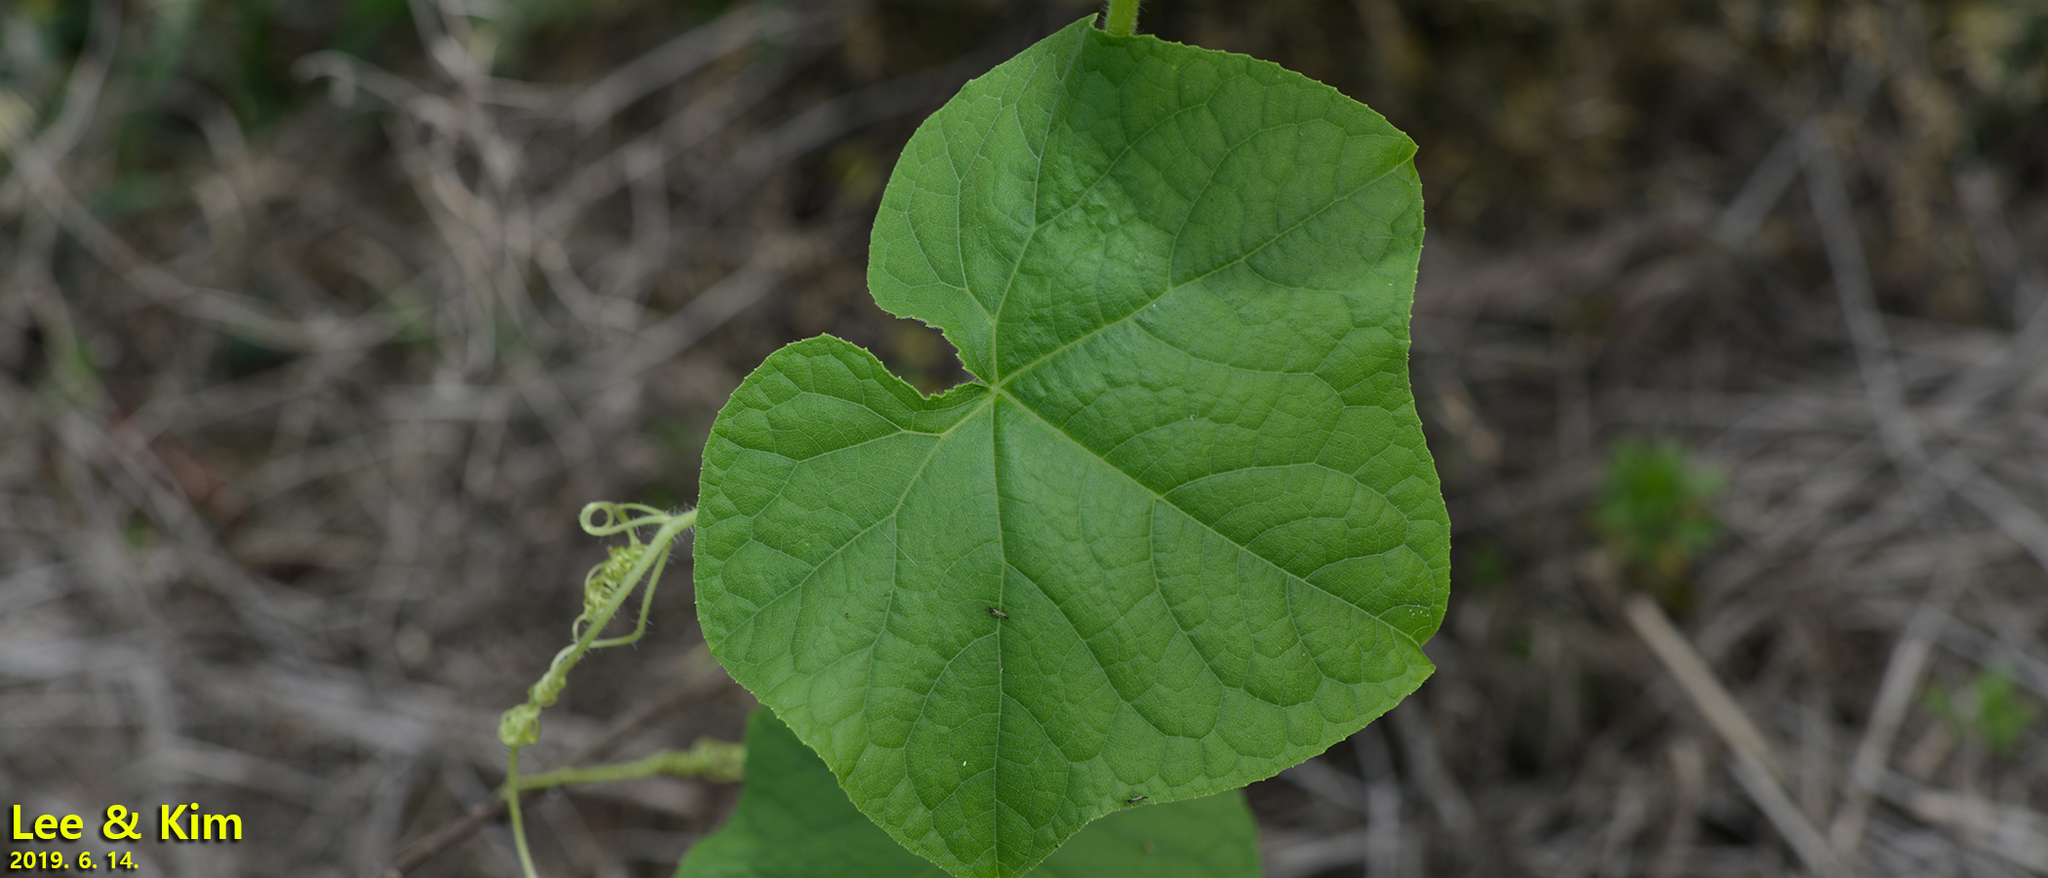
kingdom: Plantae
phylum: Tracheophyta
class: Magnoliopsida
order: Cucurbitales
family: Cucurbitaceae
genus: Sicyos
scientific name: Sicyos angulatus
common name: Angled burr cucumber
